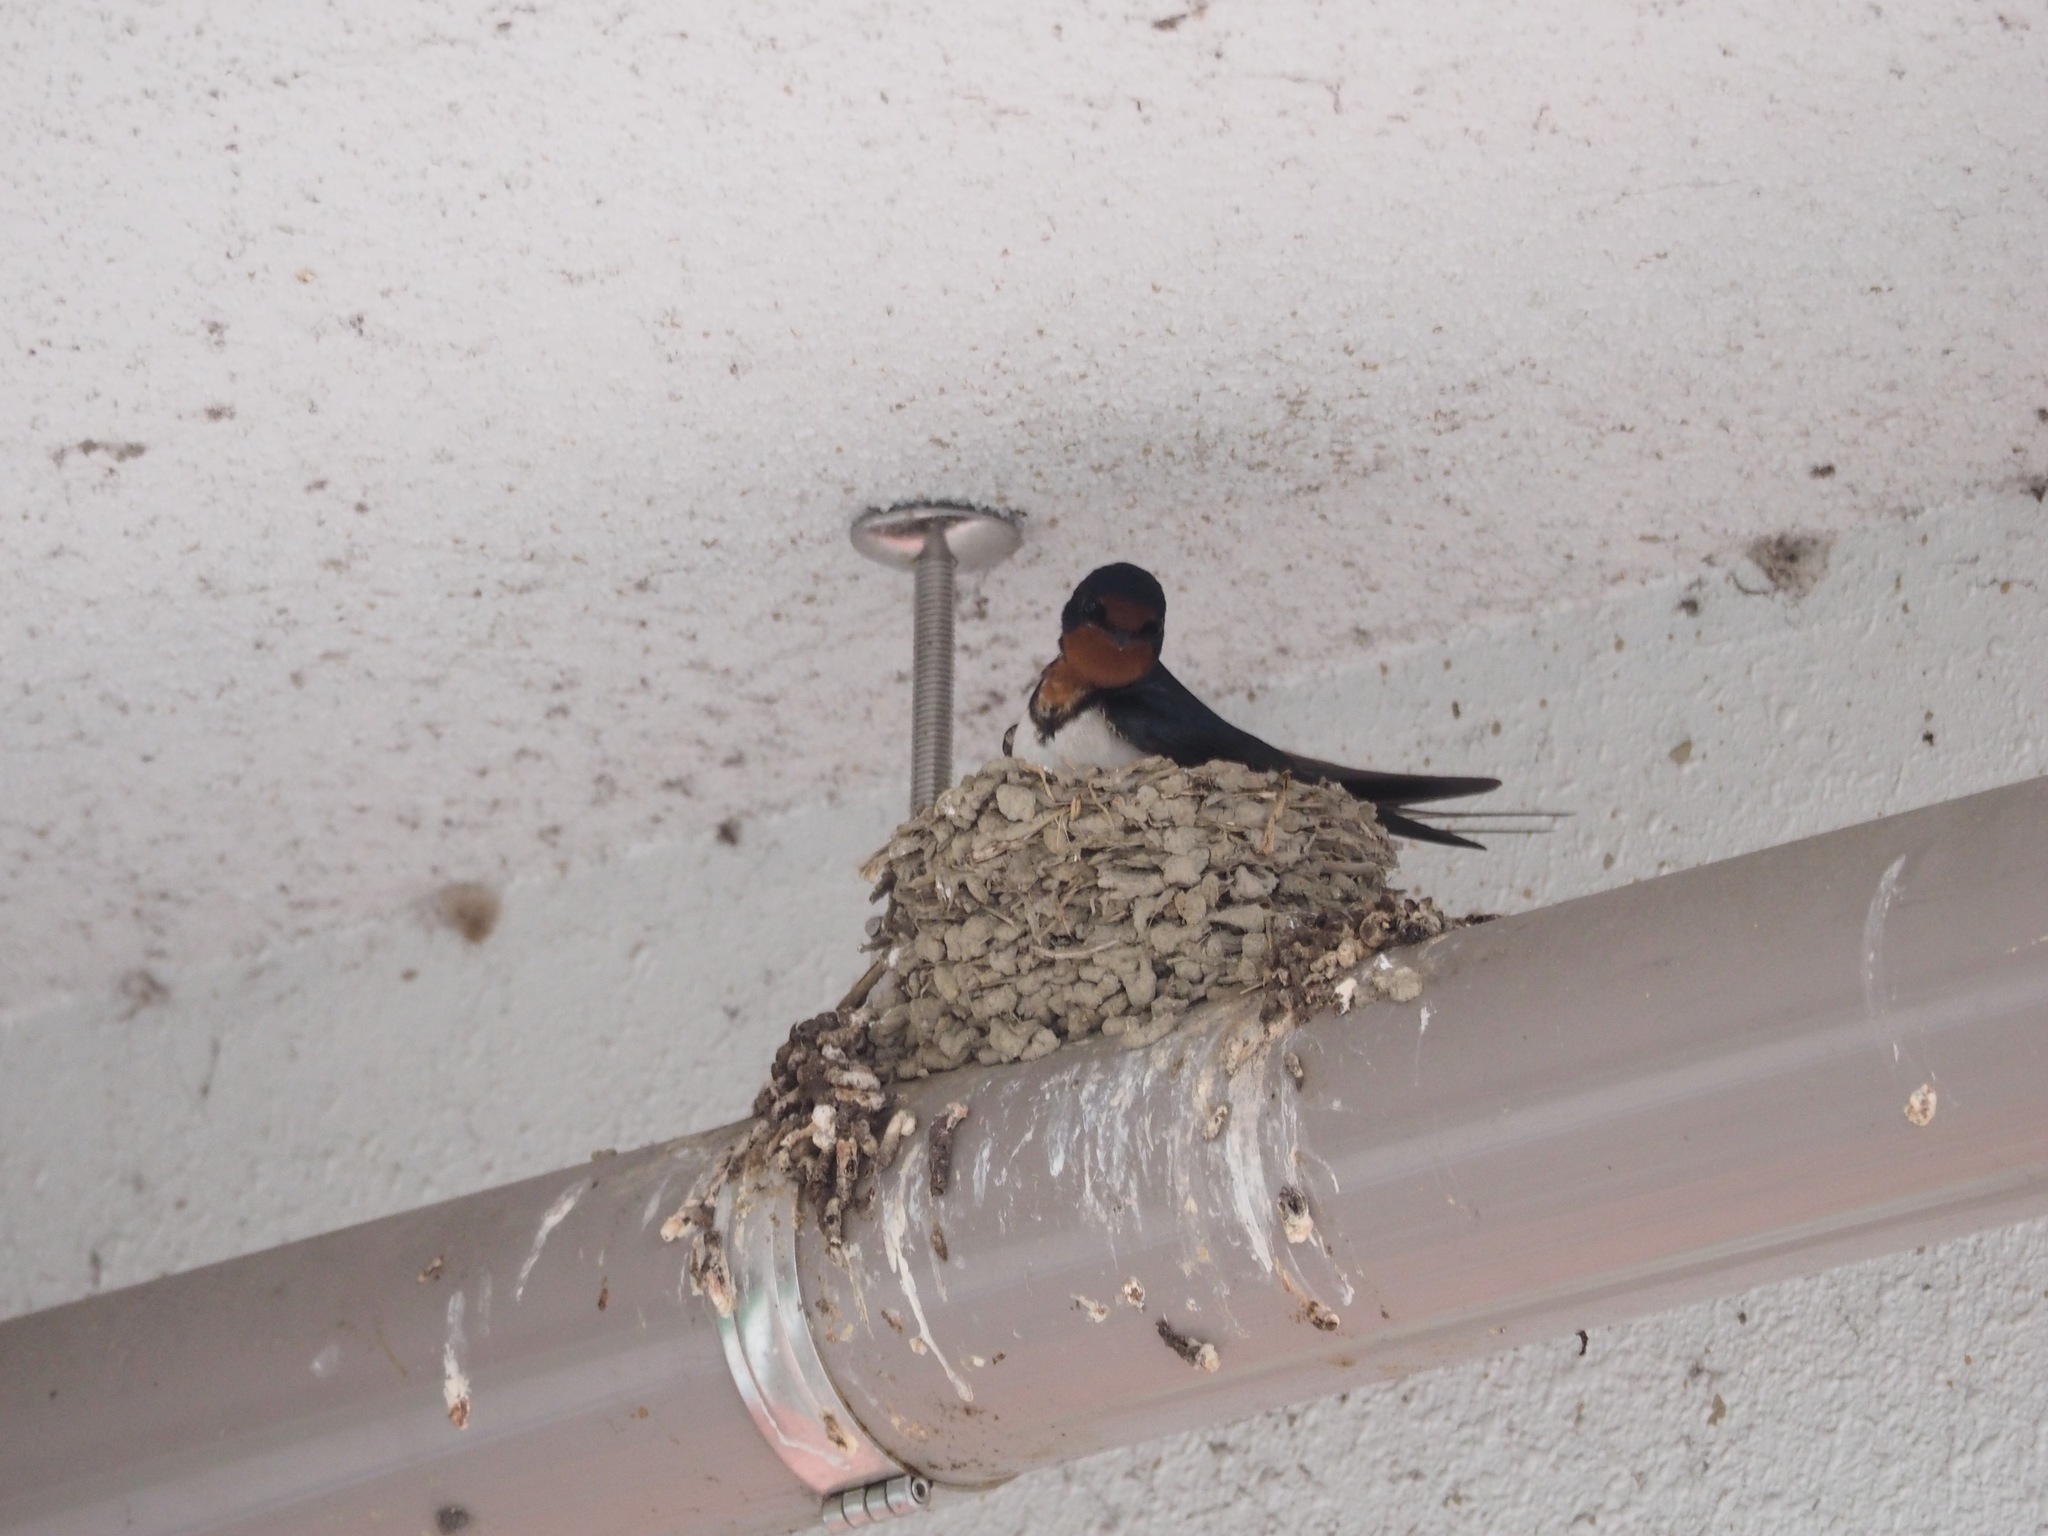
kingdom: Animalia
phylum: Chordata
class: Aves
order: Passeriformes
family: Hirundinidae
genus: Hirundo
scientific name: Hirundo rustica
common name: Barn swallow
